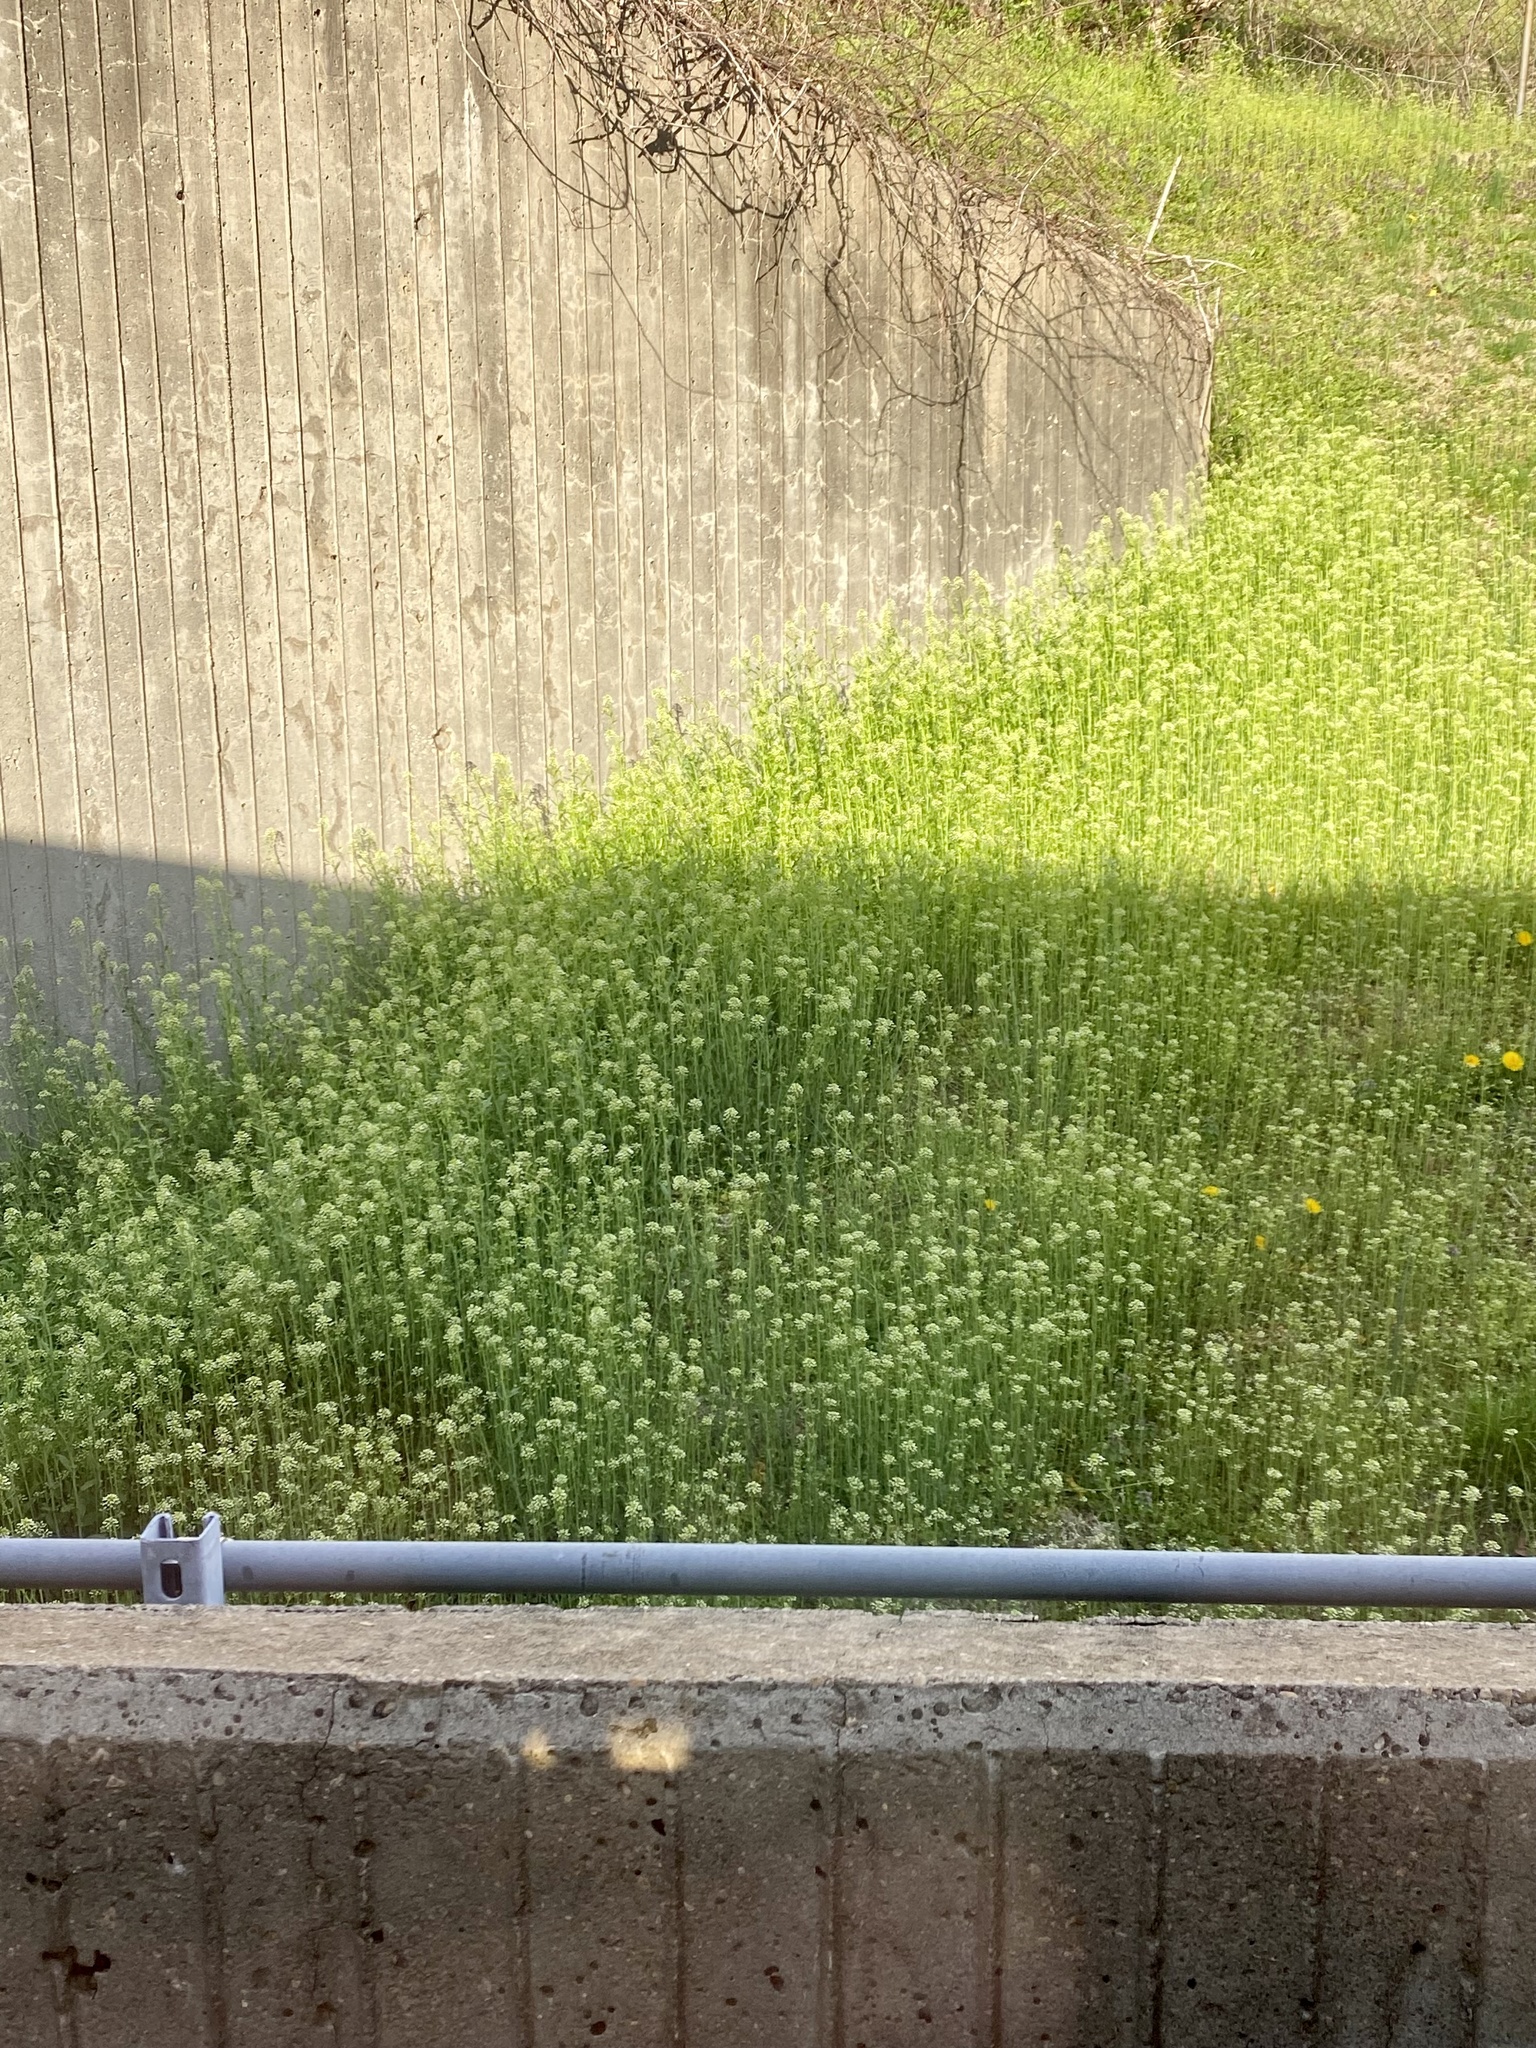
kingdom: Plantae
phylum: Tracheophyta
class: Magnoliopsida
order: Brassicales
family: Brassicaceae
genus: Mummenhoffia
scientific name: Mummenhoffia alliacea
